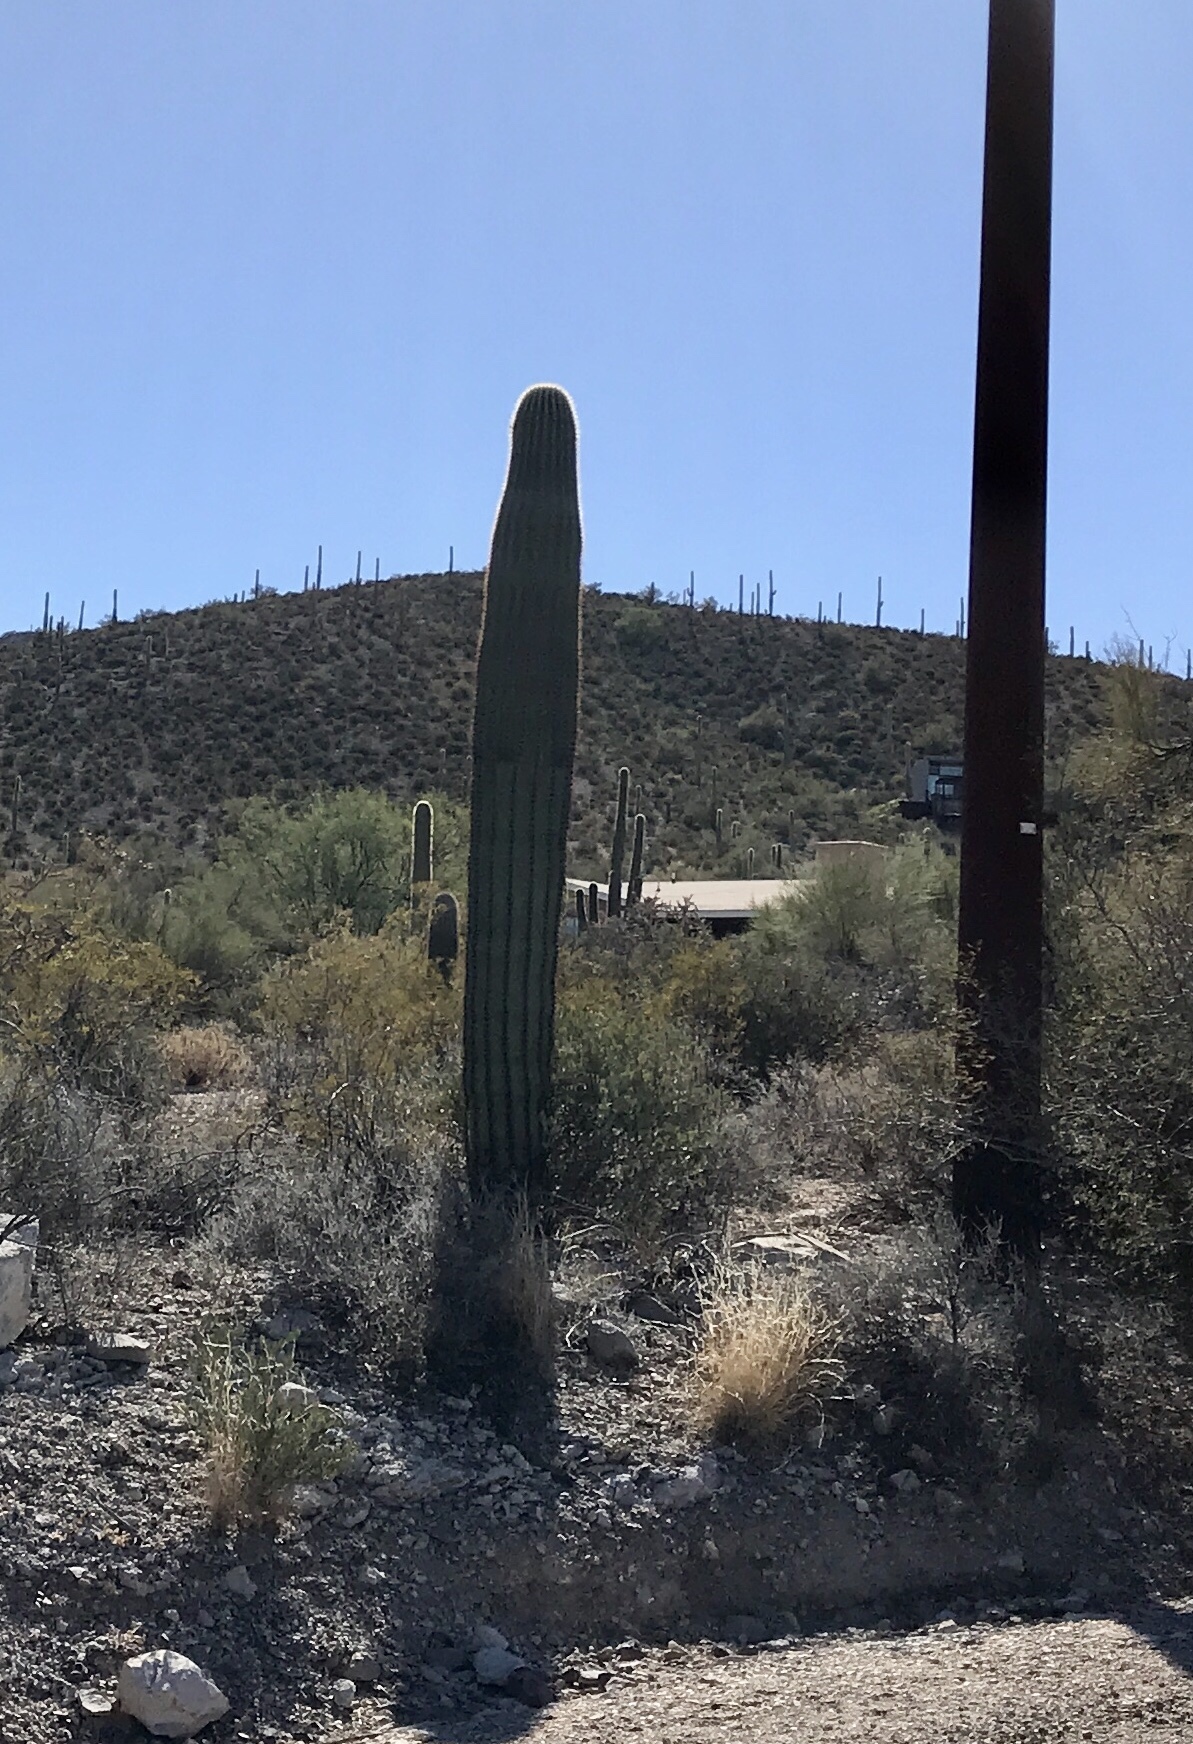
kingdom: Plantae
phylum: Tracheophyta
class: Magnoliopsida
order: Caryophyllales
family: Cactaceae
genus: Carnegiea
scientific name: Carnegiea gigantea
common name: Saguaro
